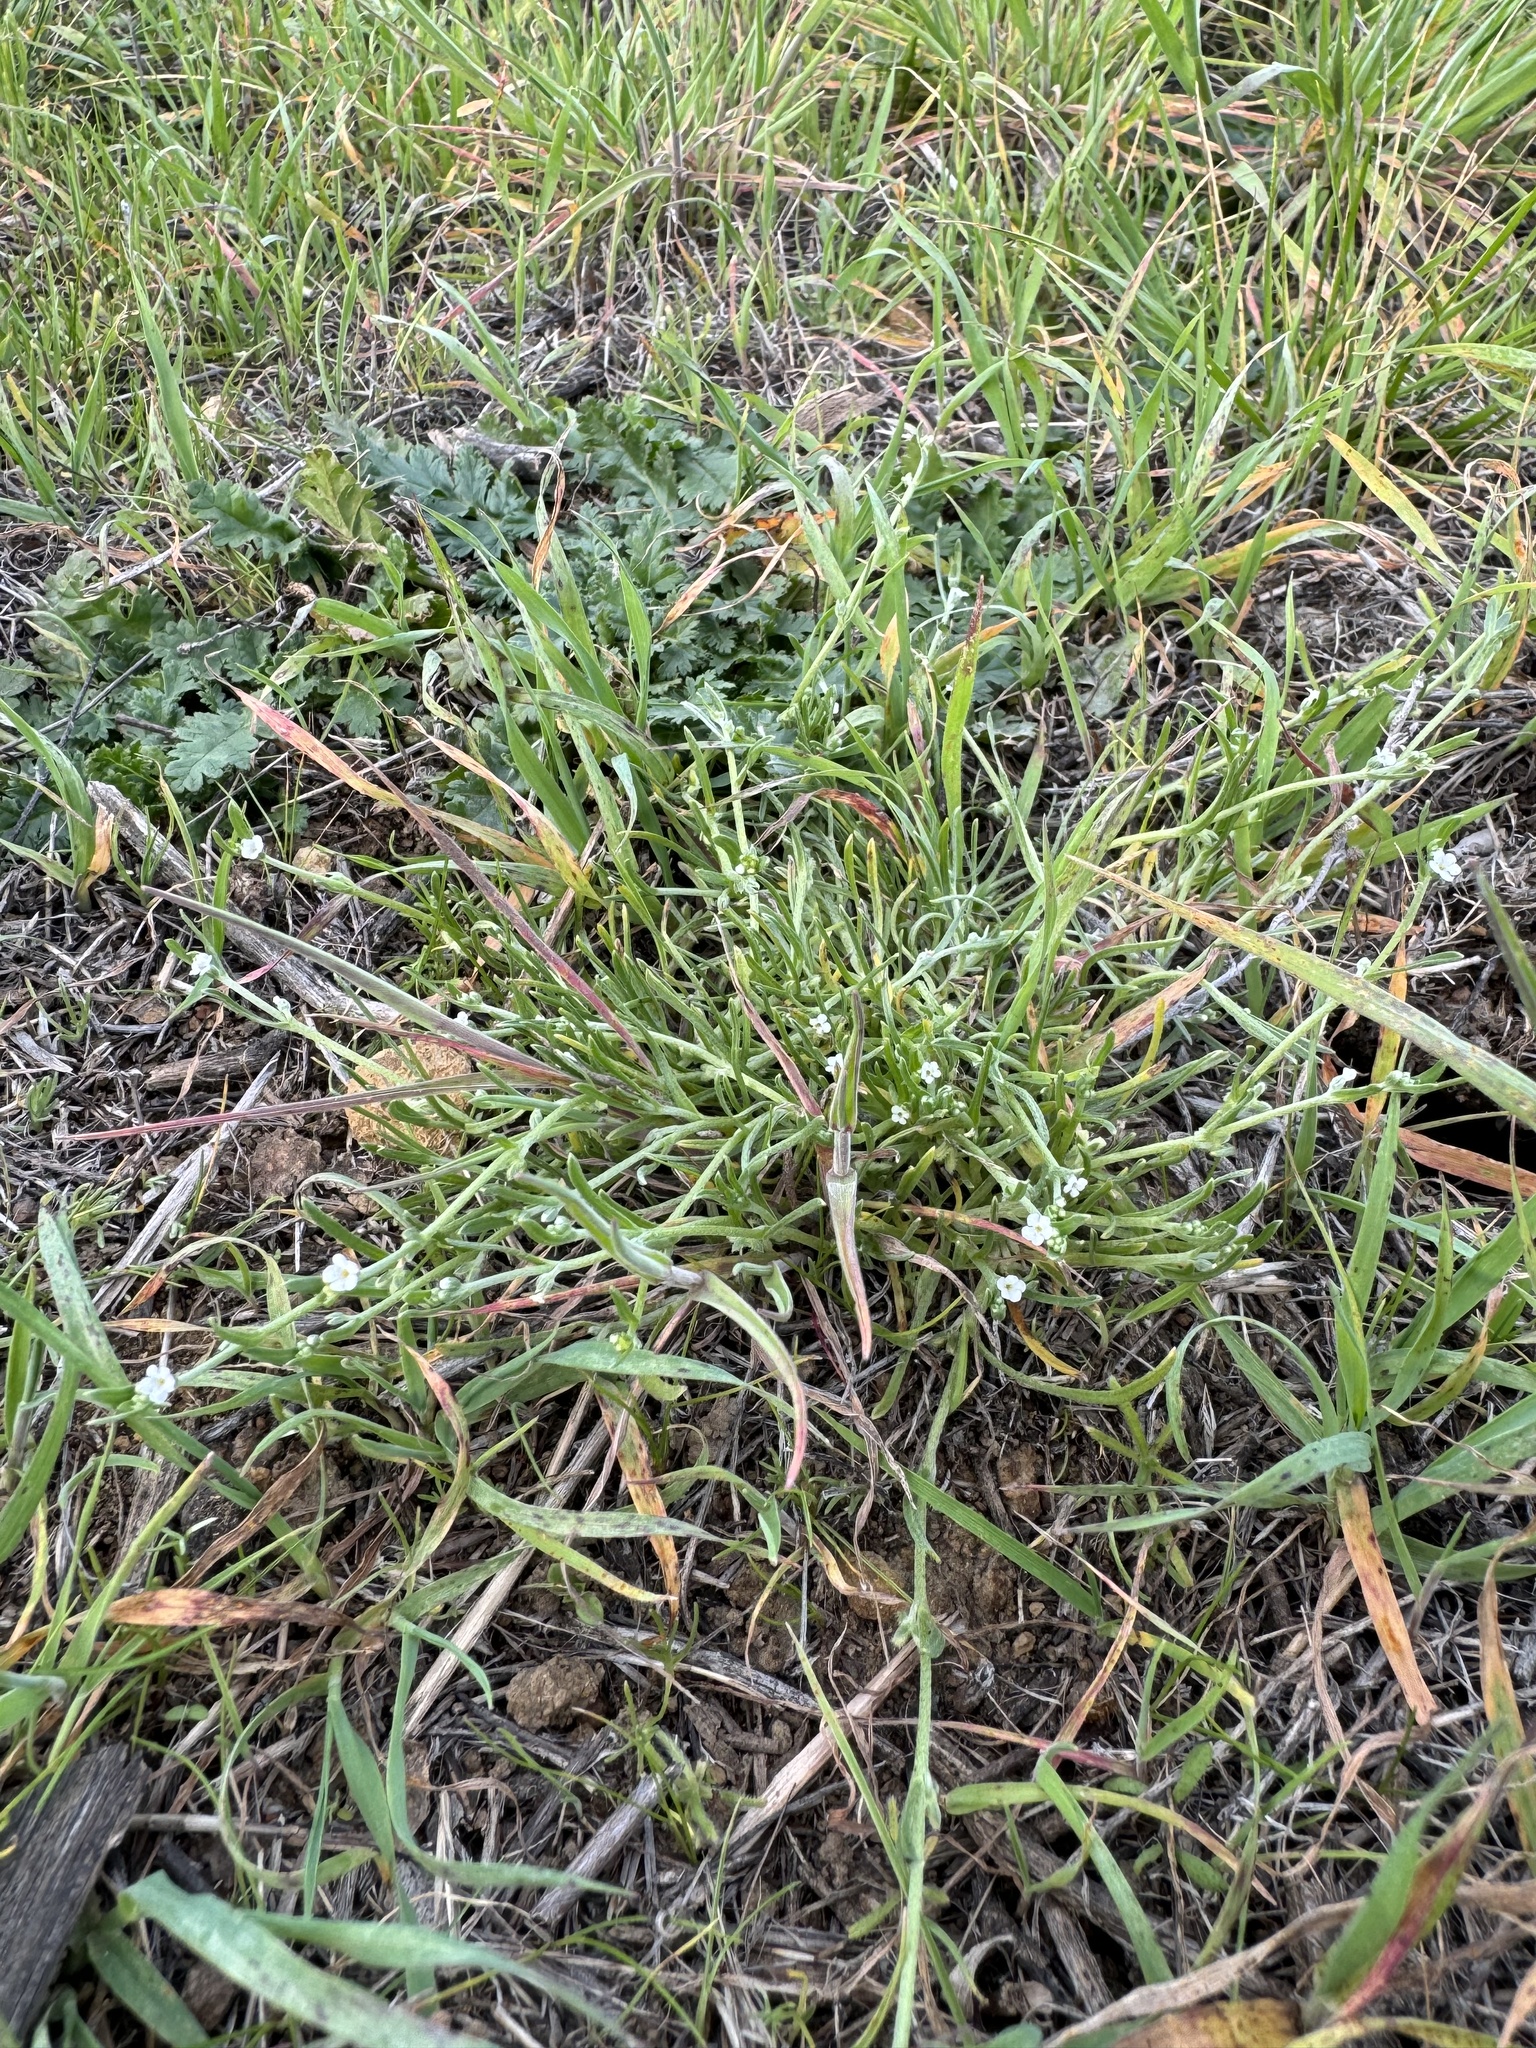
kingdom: Plantae
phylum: Tracheophyta
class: Magnoliopsida
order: Boraginales
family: Boraginaceae
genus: Pectocarya
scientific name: Pectocarya linearis
